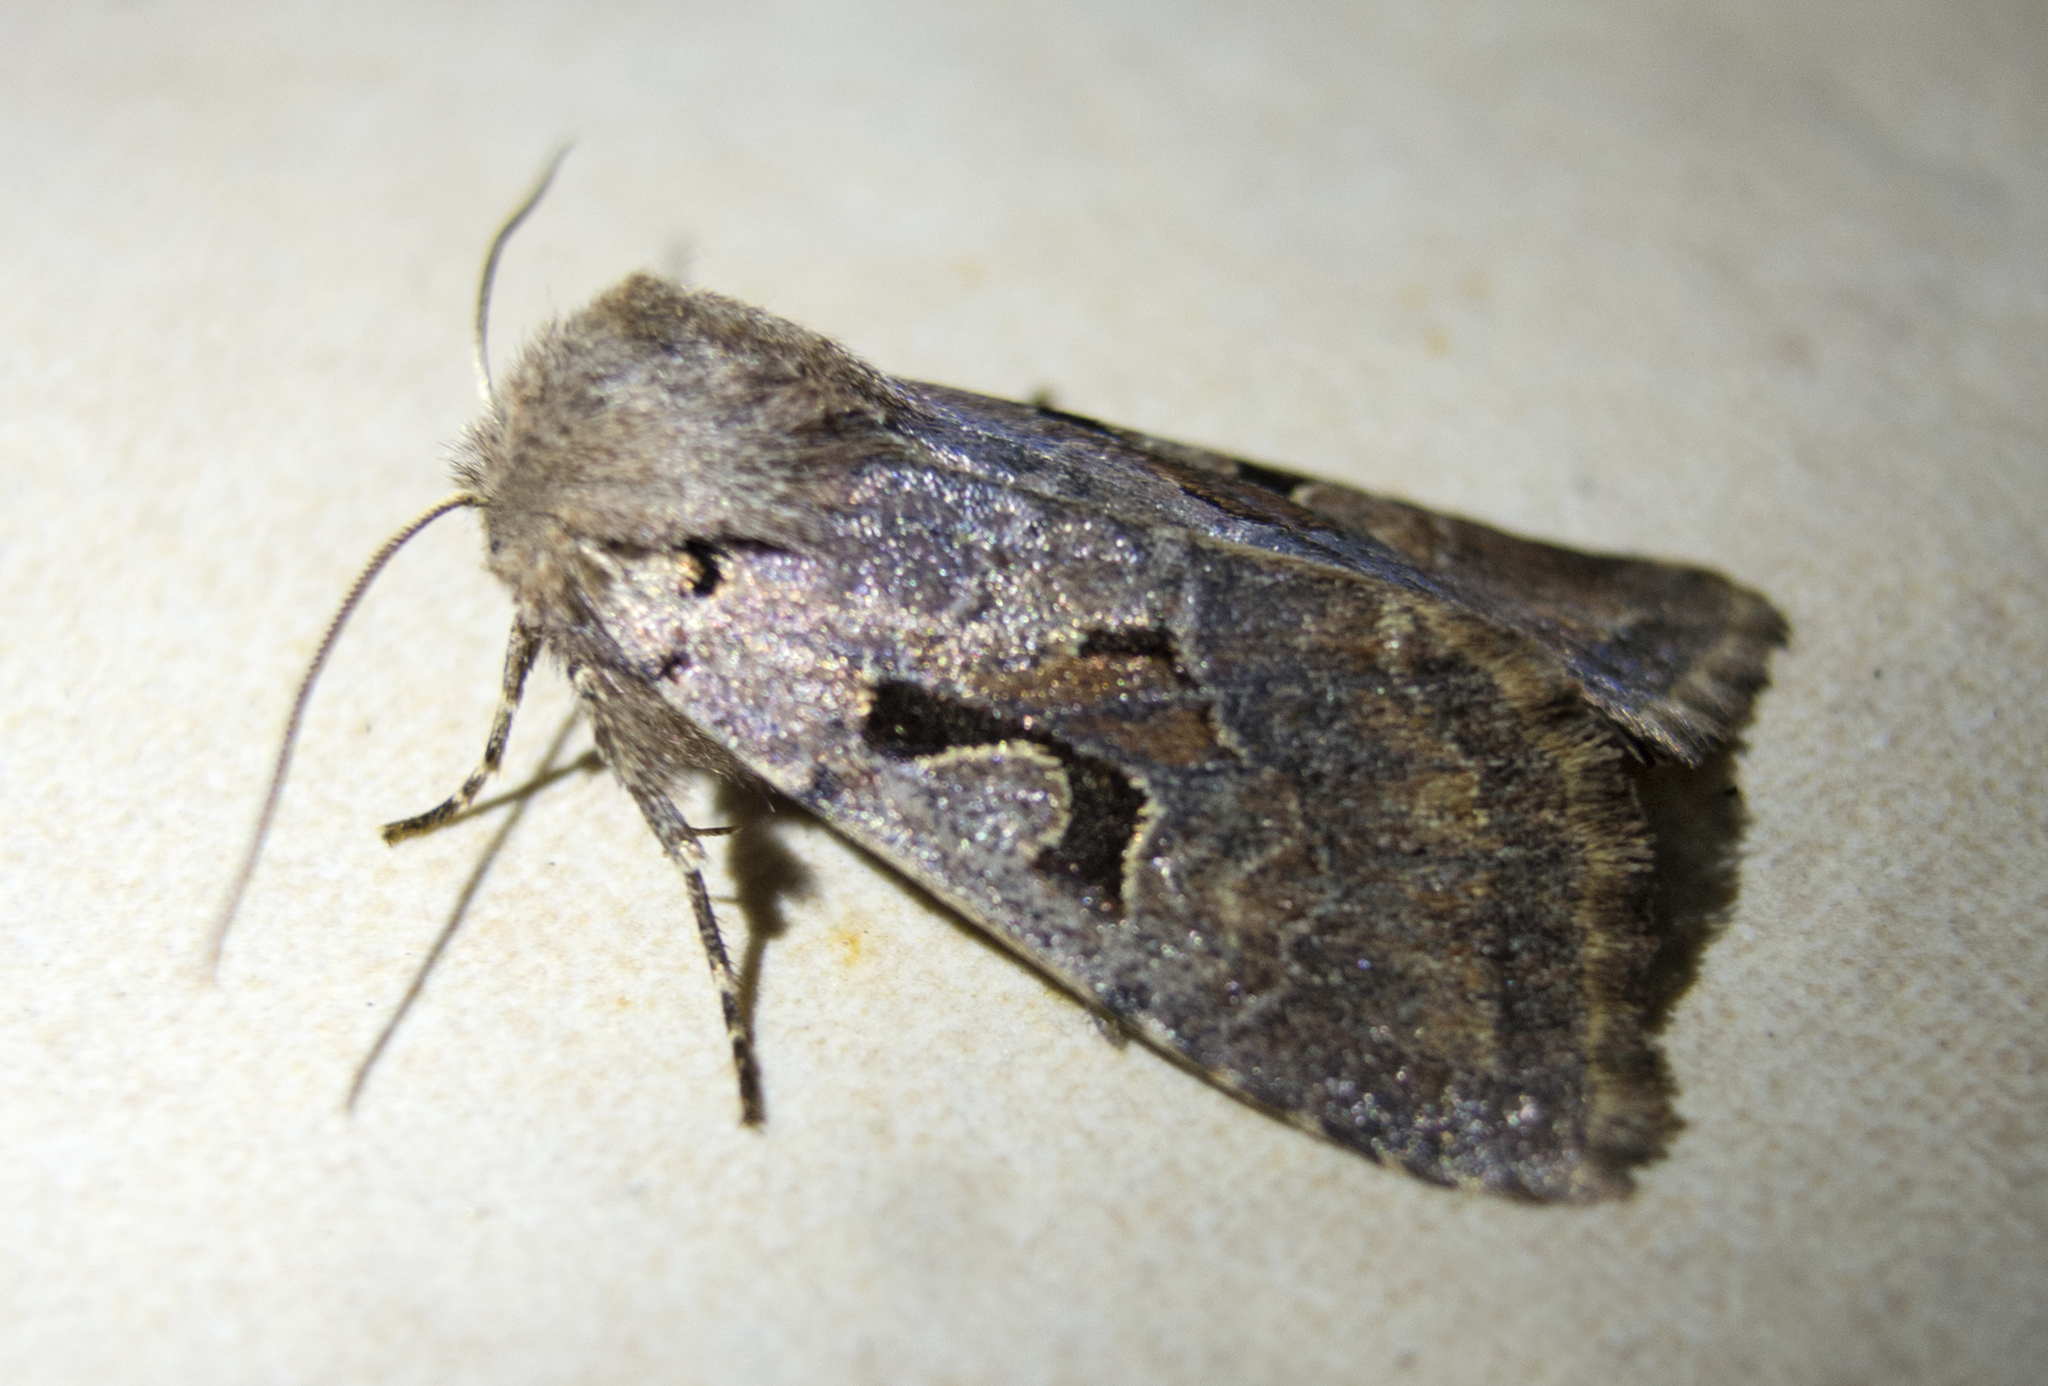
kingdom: Animalia
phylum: Arthropoda
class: Insecta
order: Lepidoptera
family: Noctuidae
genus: Orthosia
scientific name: Orthosia gothica
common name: Hebrew character
